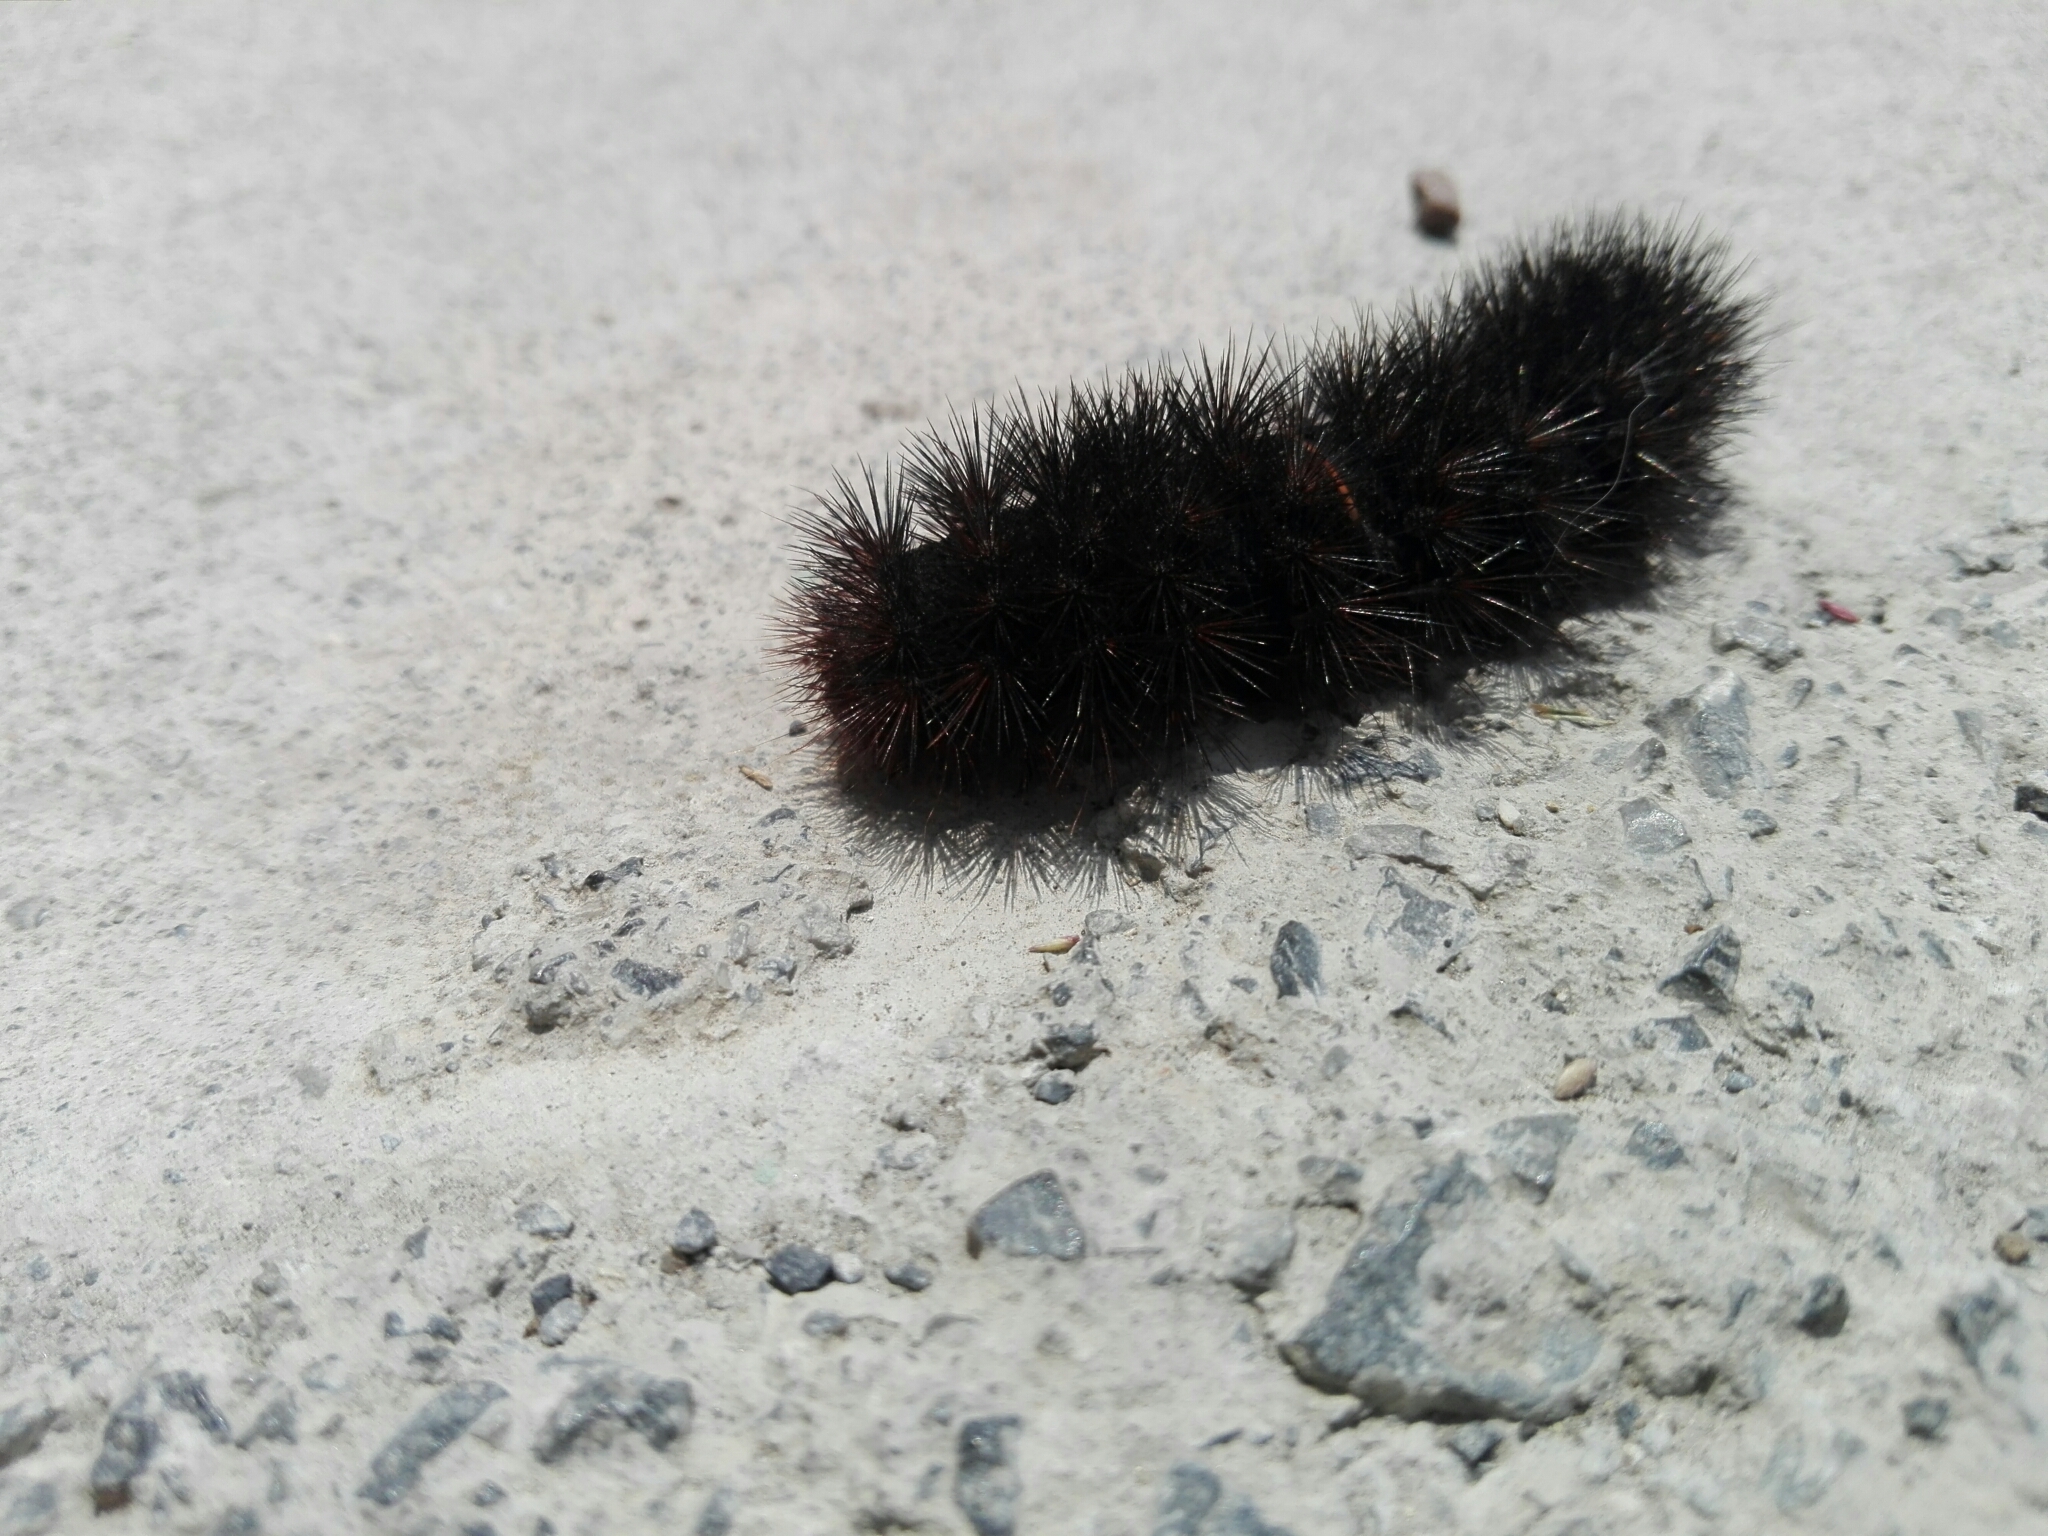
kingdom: Animalia
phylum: Arthropoda
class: Insecta
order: Lepidoptera
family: Erebidae
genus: Hypercompe
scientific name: Hypercompe scribonia
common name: Giant leopard moth
